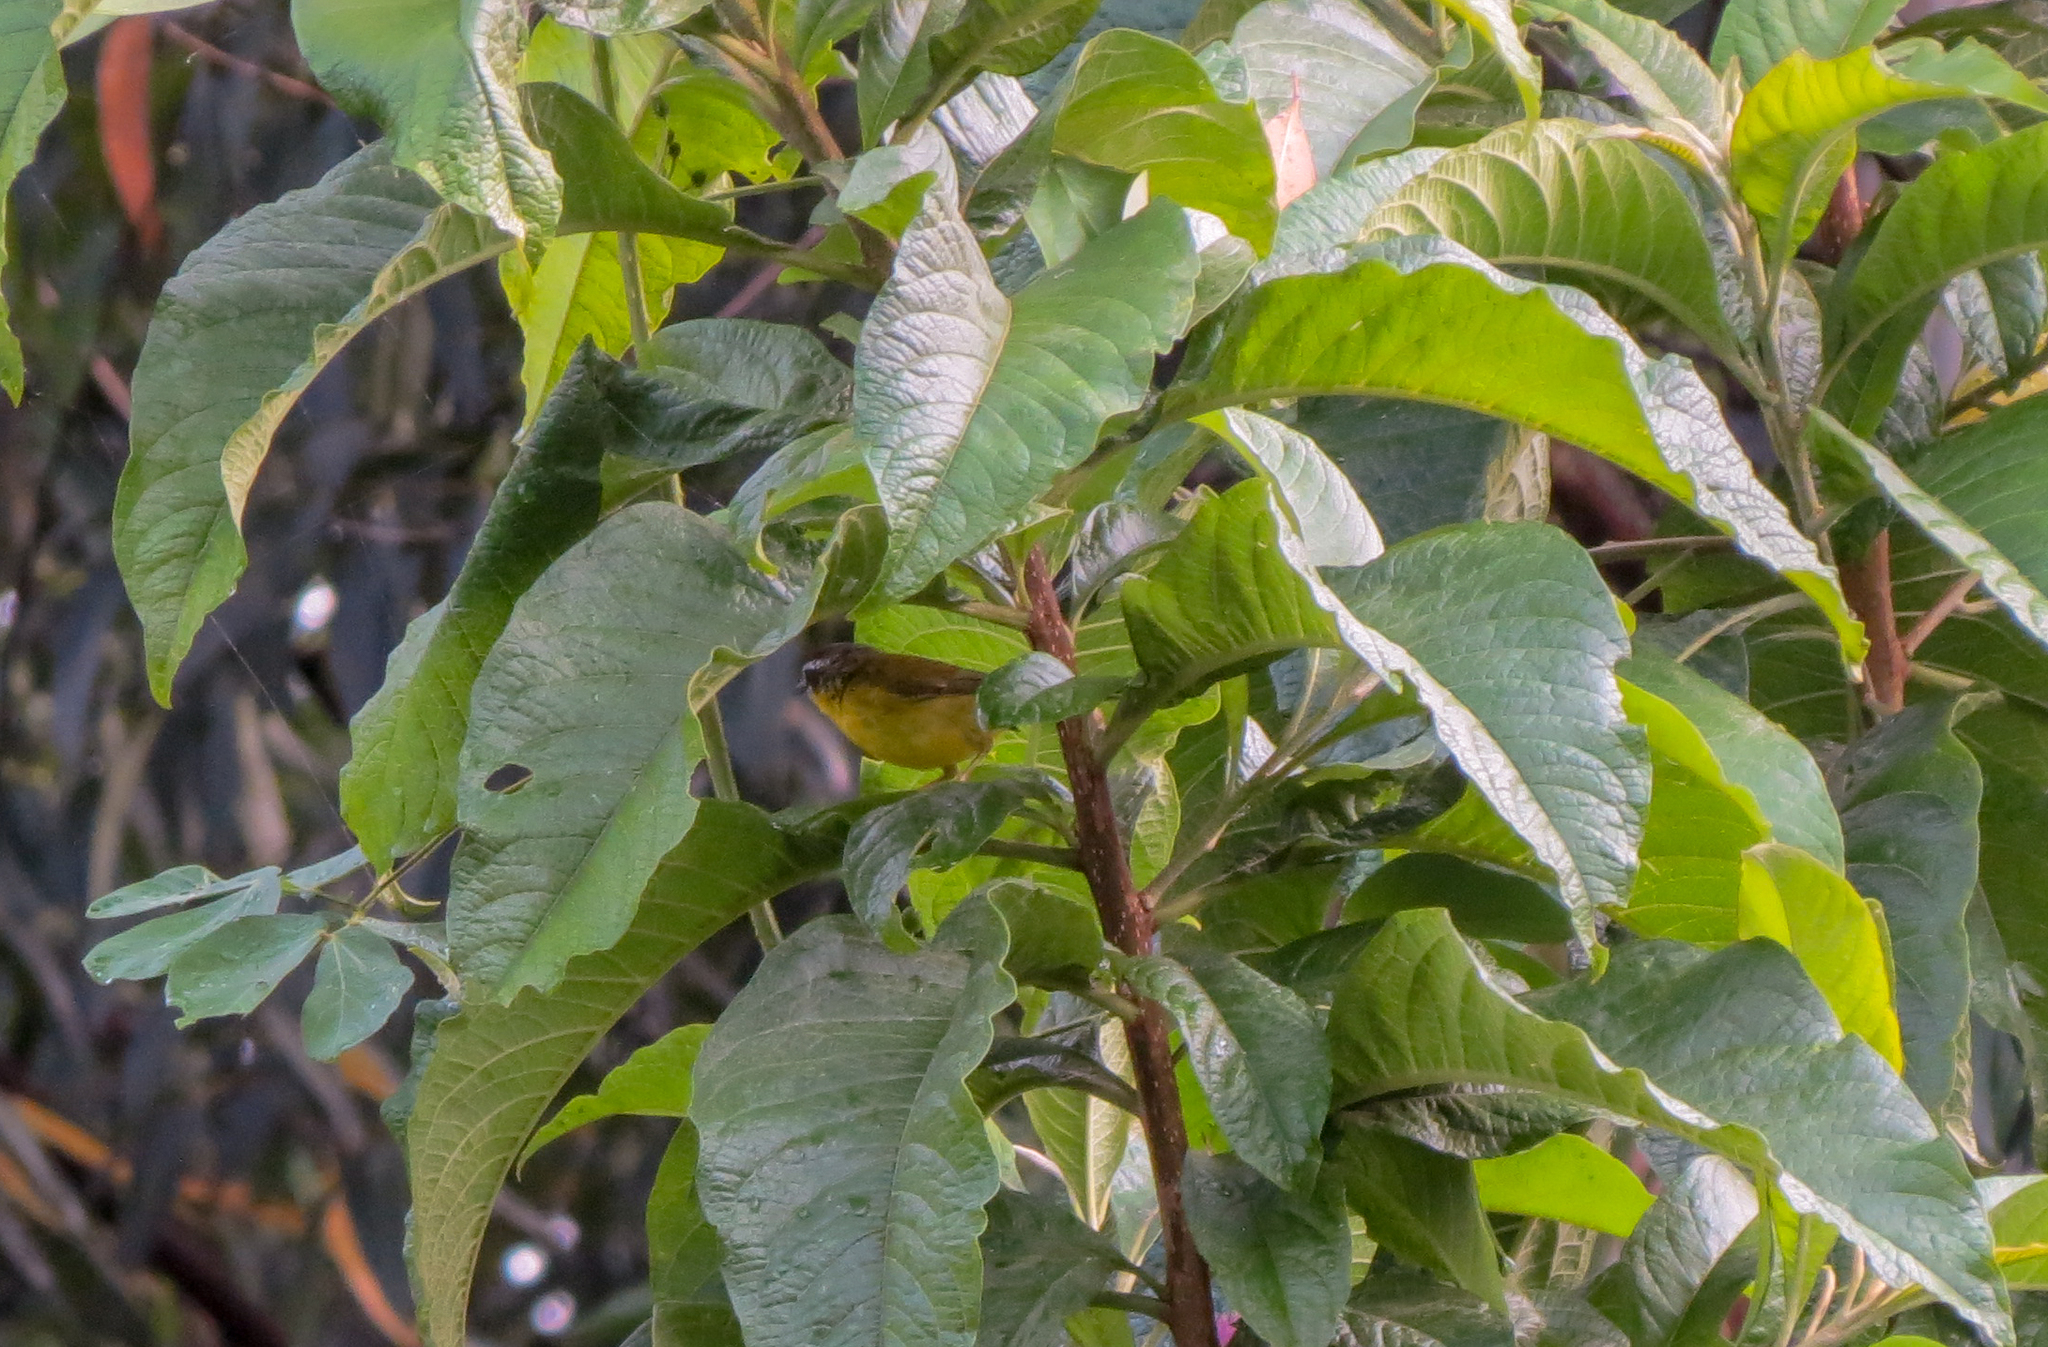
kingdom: Animalia
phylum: Chordata
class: Aves
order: Passeriformes
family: Parulidae
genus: Basileuterus
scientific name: Basileuterus rufifrons
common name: Rufous-capped warbler
